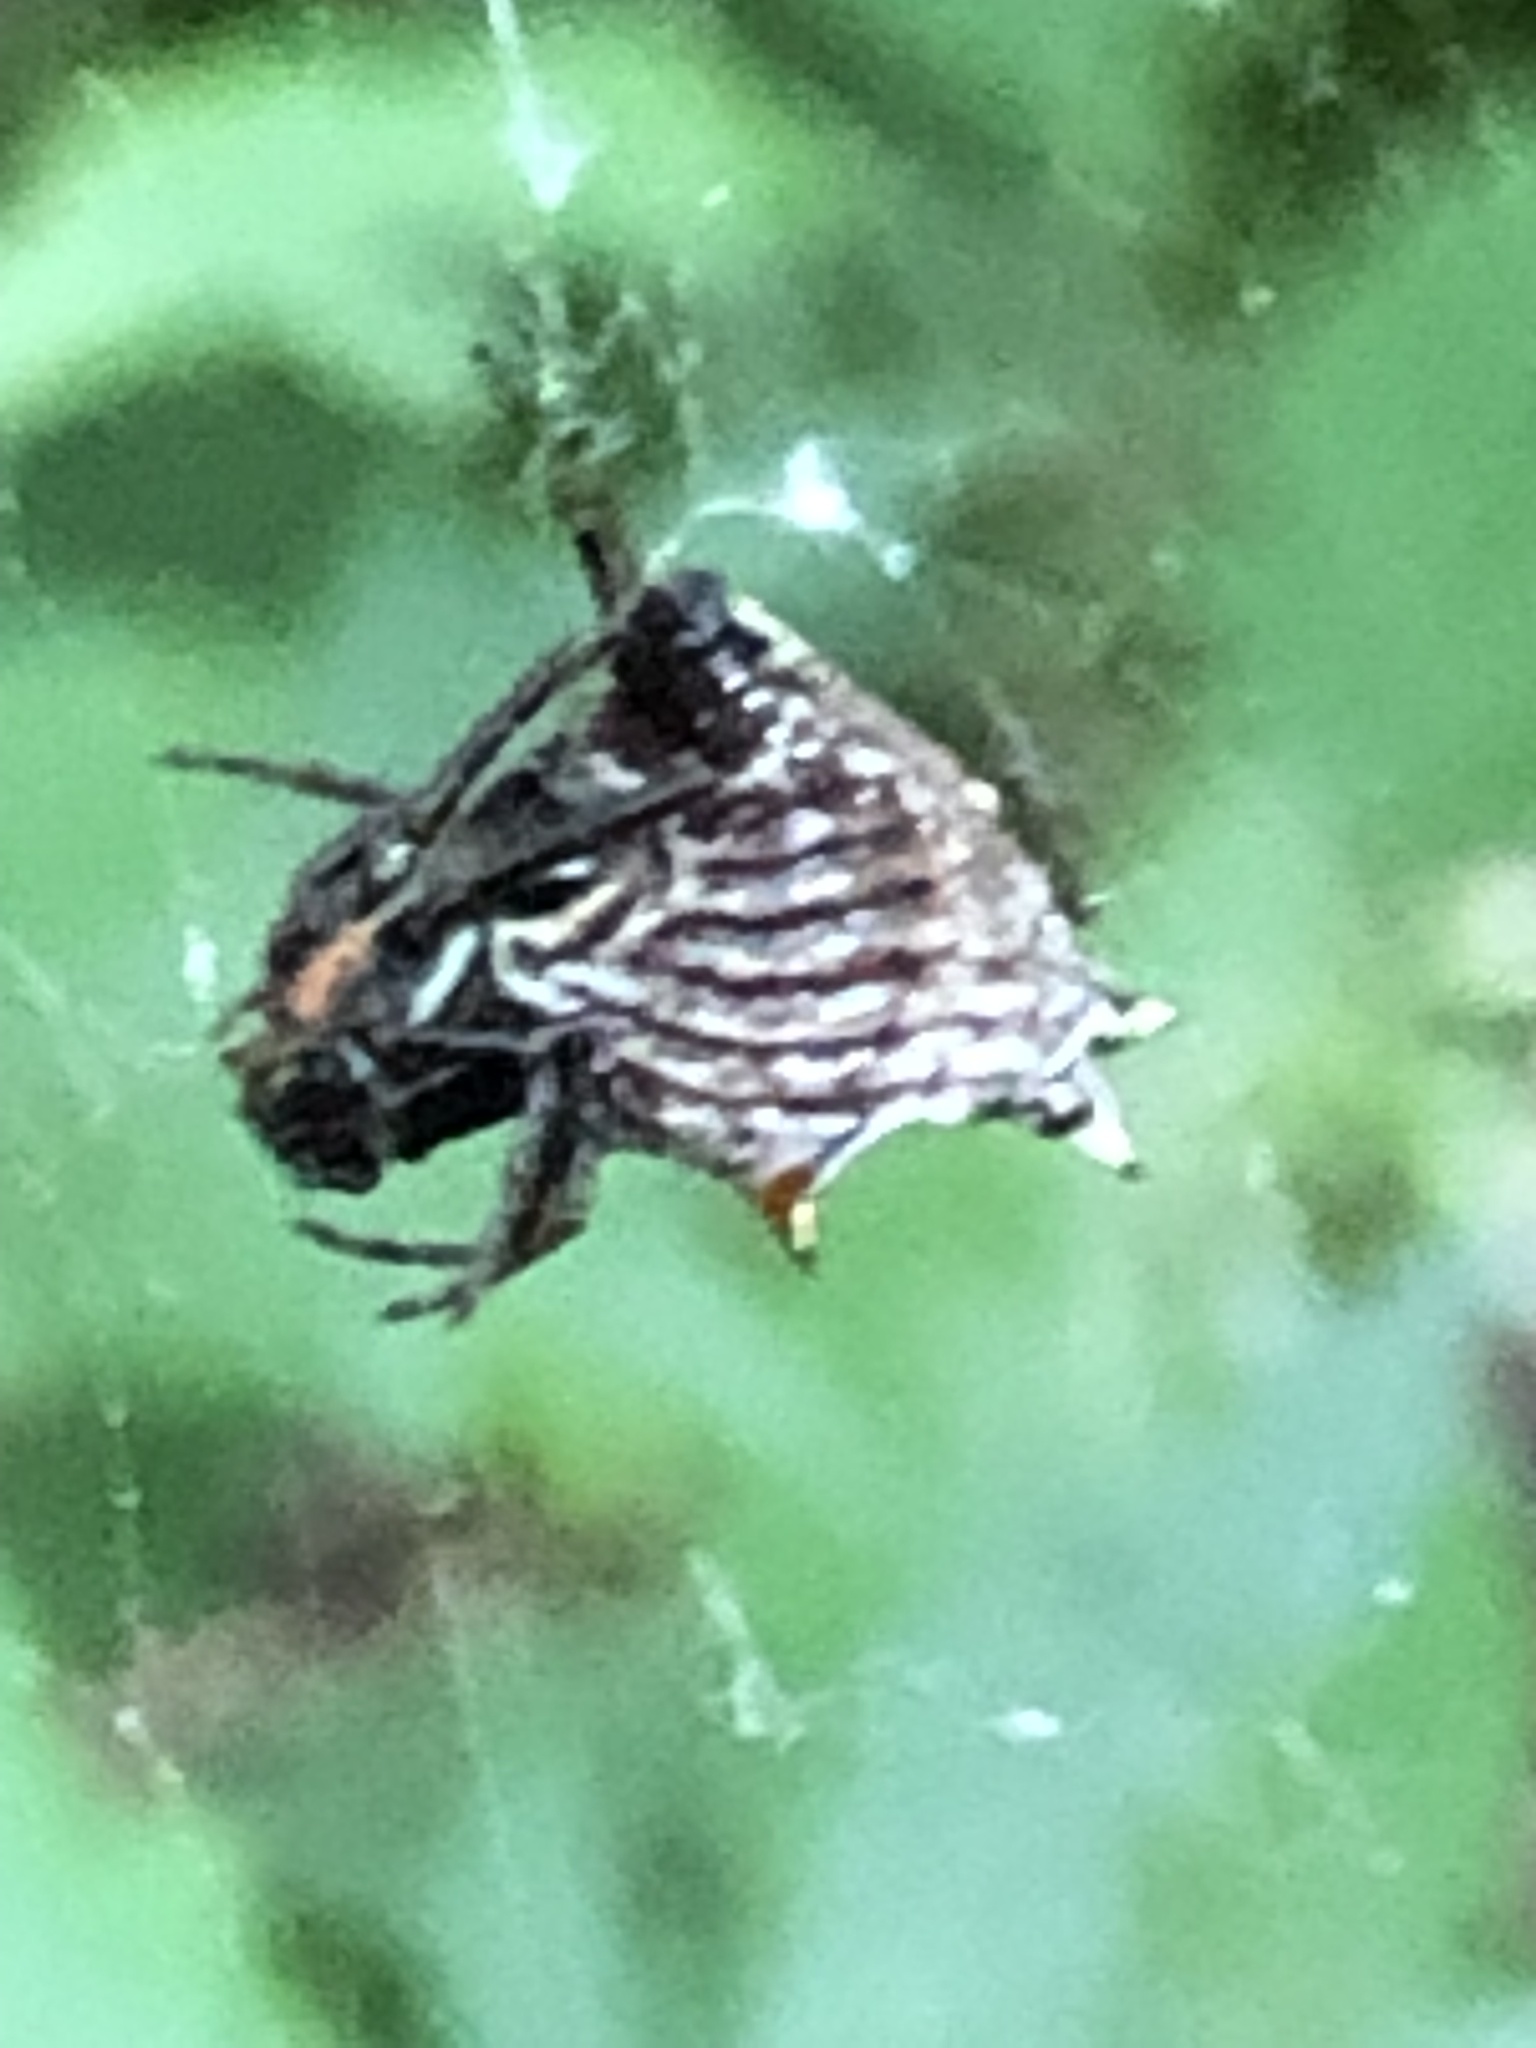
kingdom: Animalia
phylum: Arthropoda
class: Arachnida
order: Araneae
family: Araneidae
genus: Micrathena
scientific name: Micrathena gracilis
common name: Orb weavers
